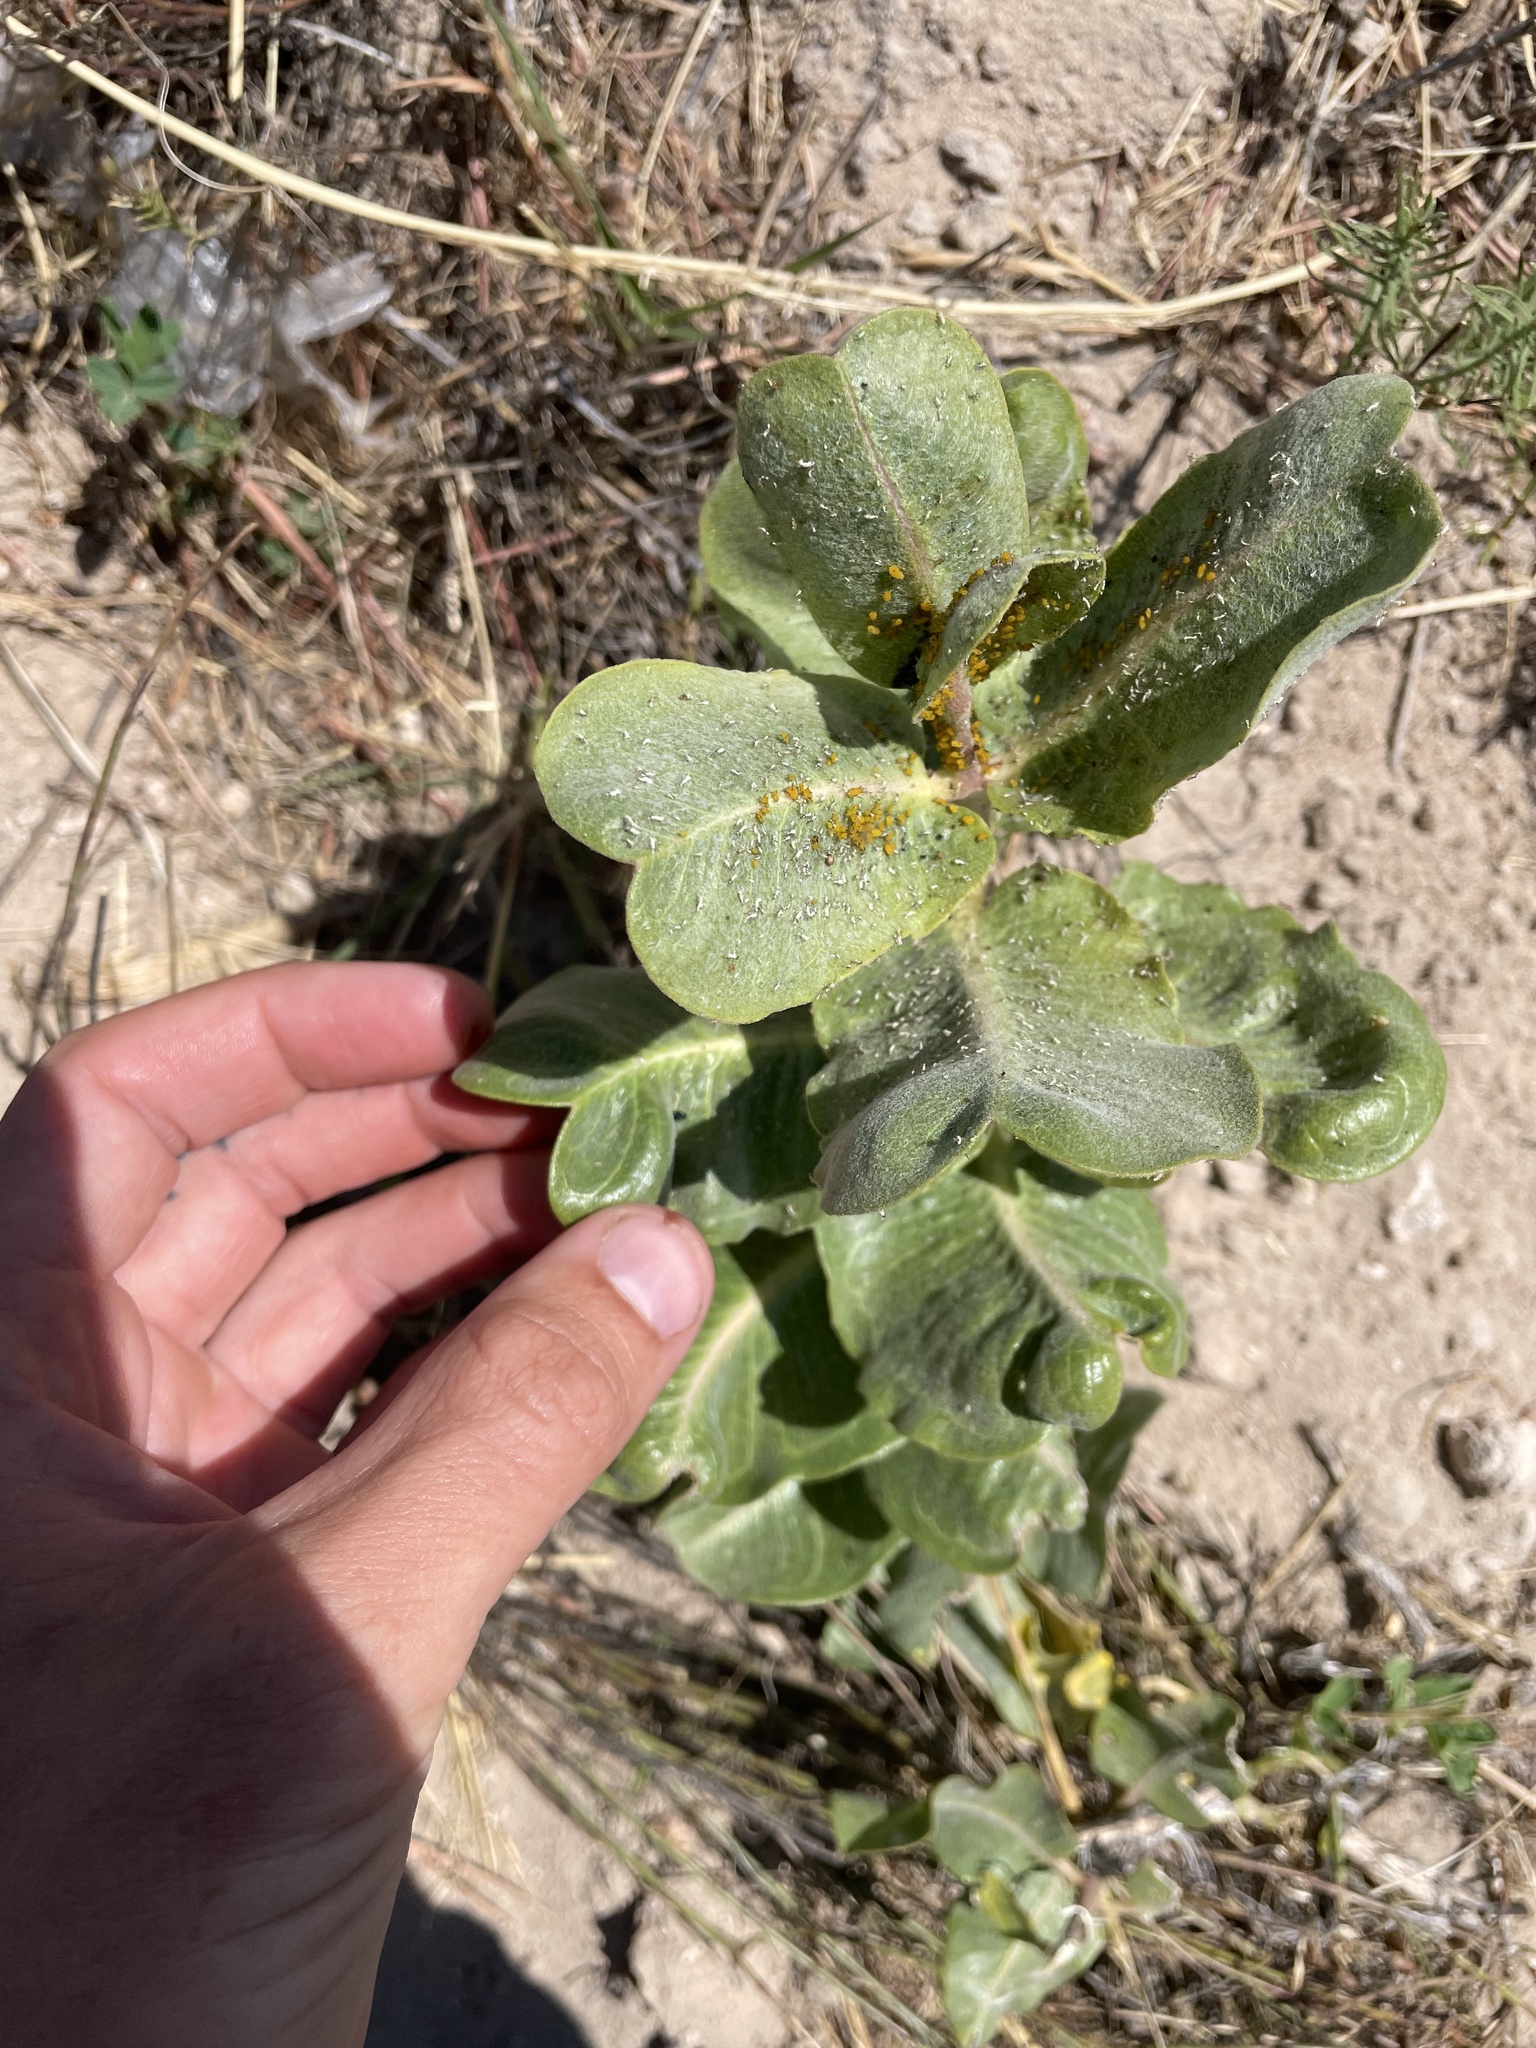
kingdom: Plantae
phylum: Tracheophyta
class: Magnoliopsida
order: Gentianales
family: Apocynaceae
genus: Asclepias
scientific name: Asclepias arenaria
